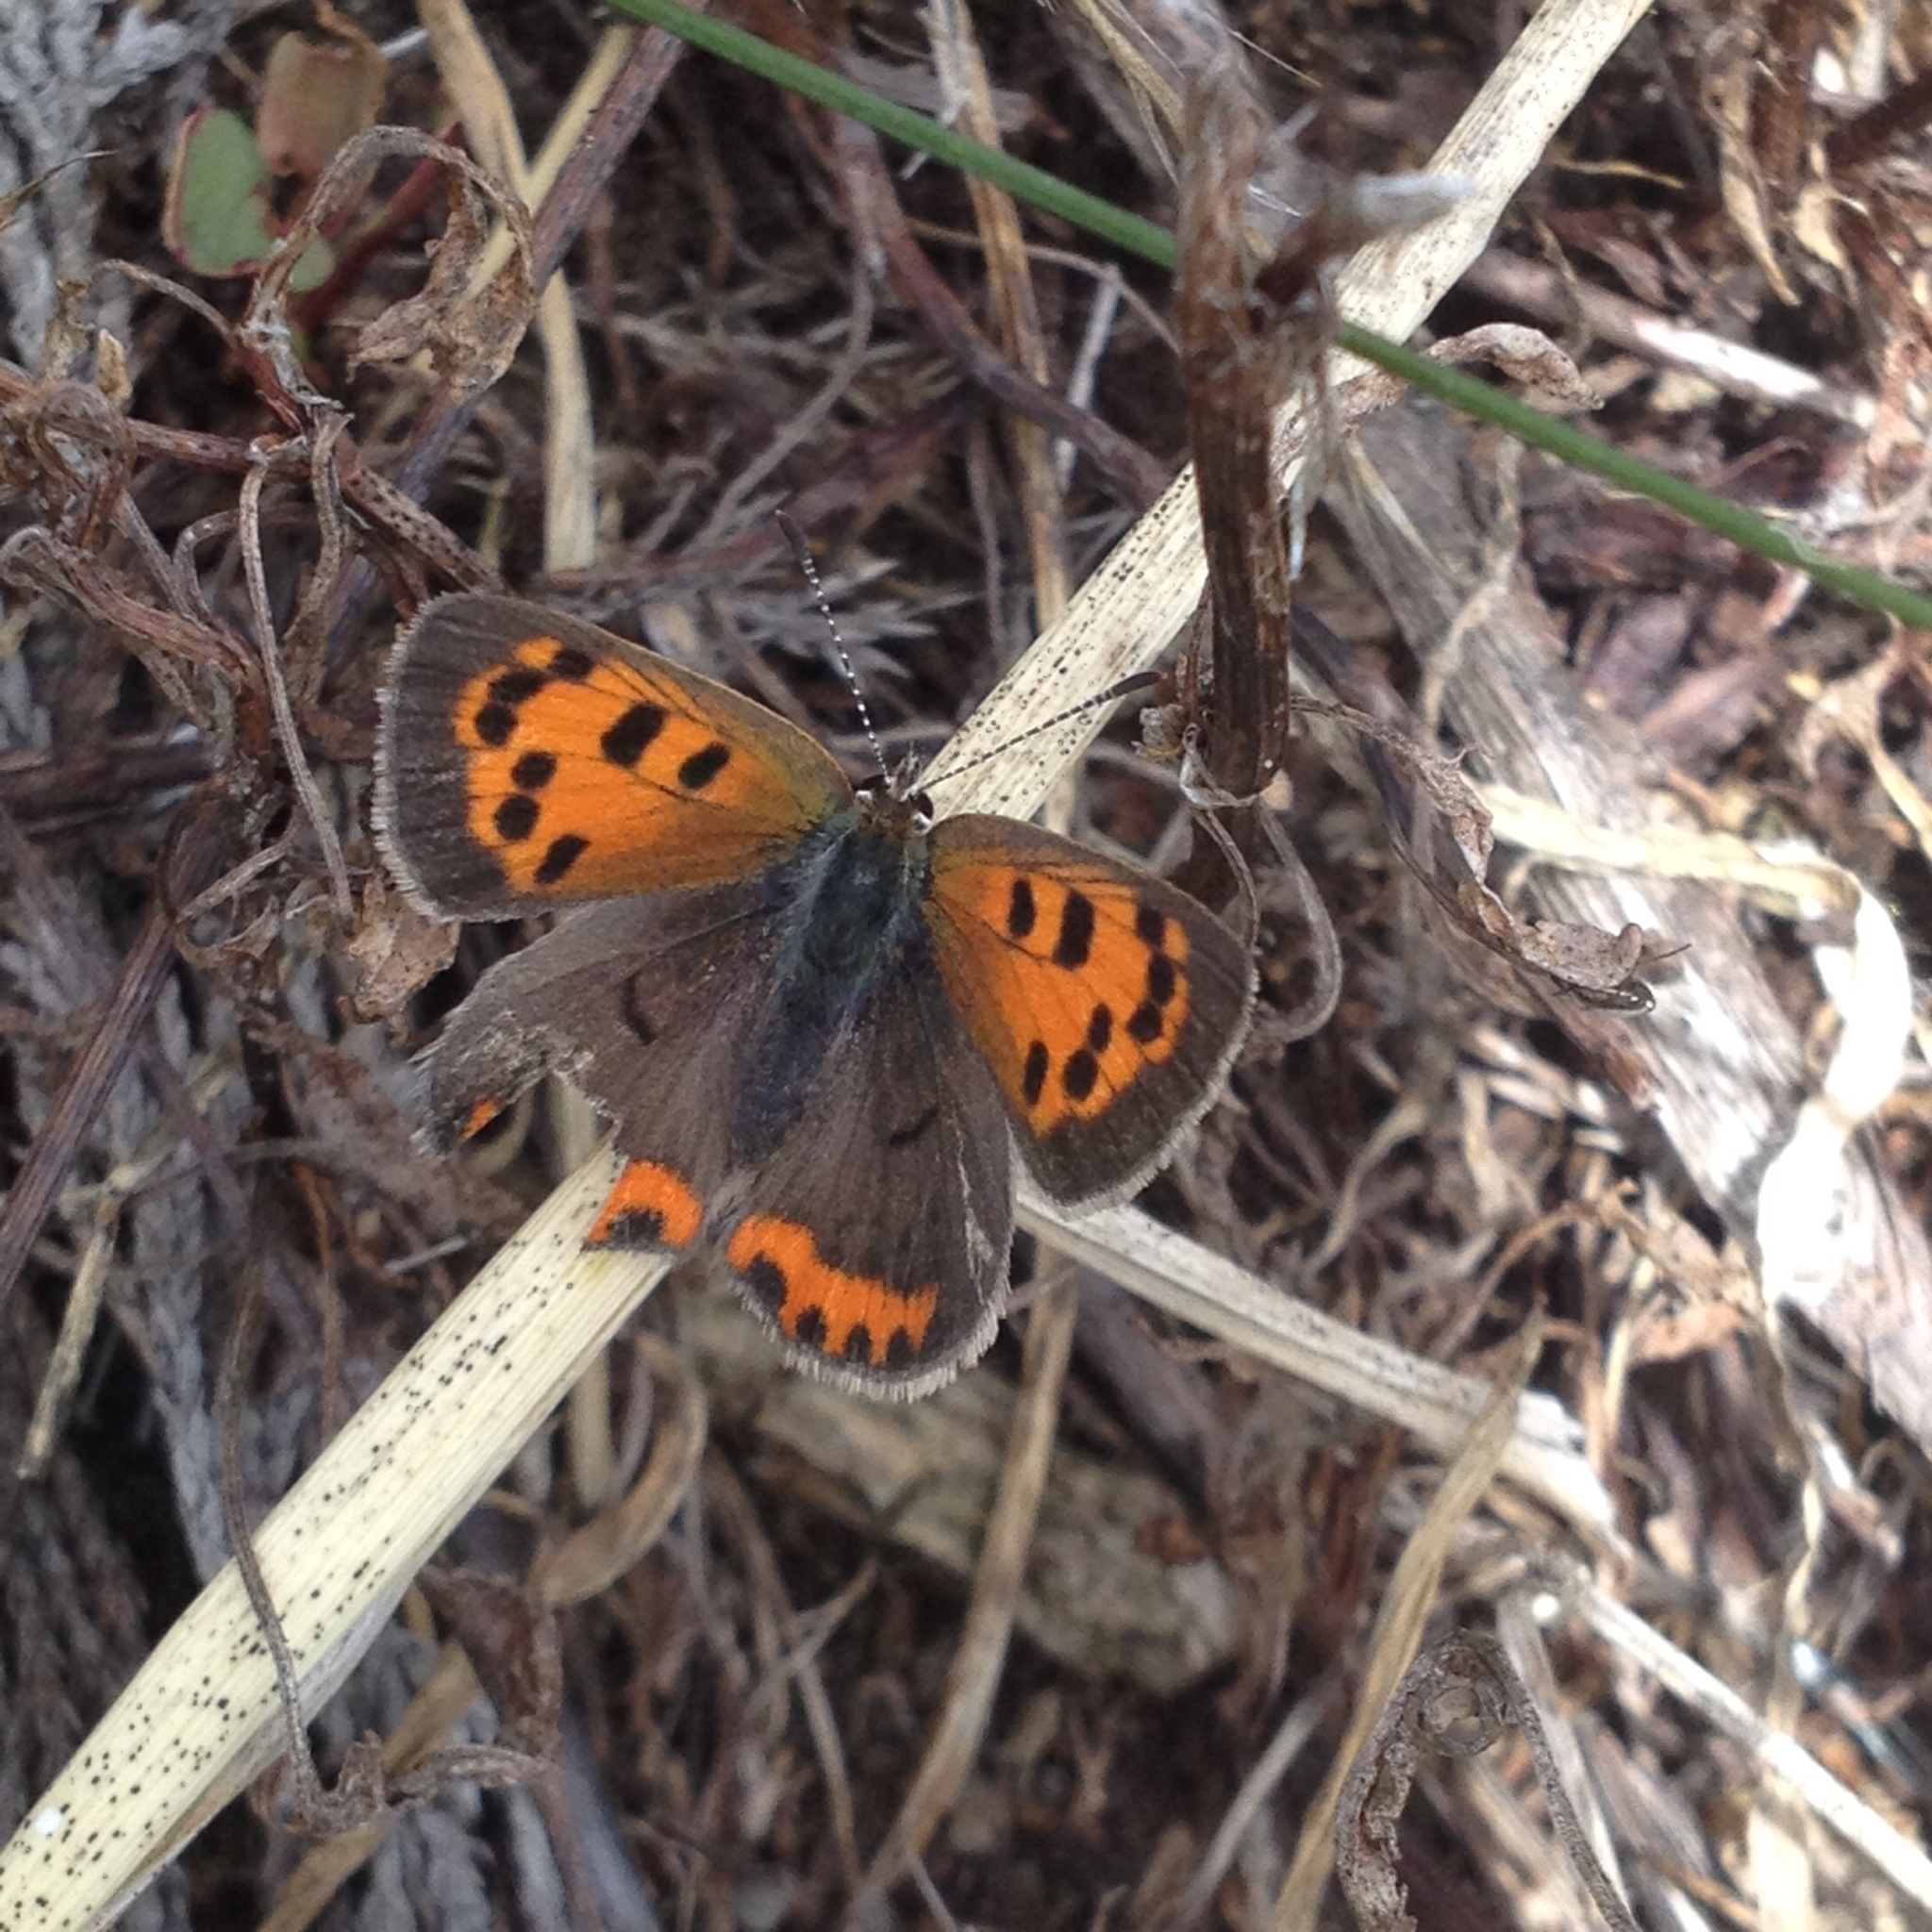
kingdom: Animalia
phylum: Arthropoda
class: Insecta
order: Lepidoptera
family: Lycaenidae
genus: Lycaena
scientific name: Lycaena hypophlaeas
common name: American copper
